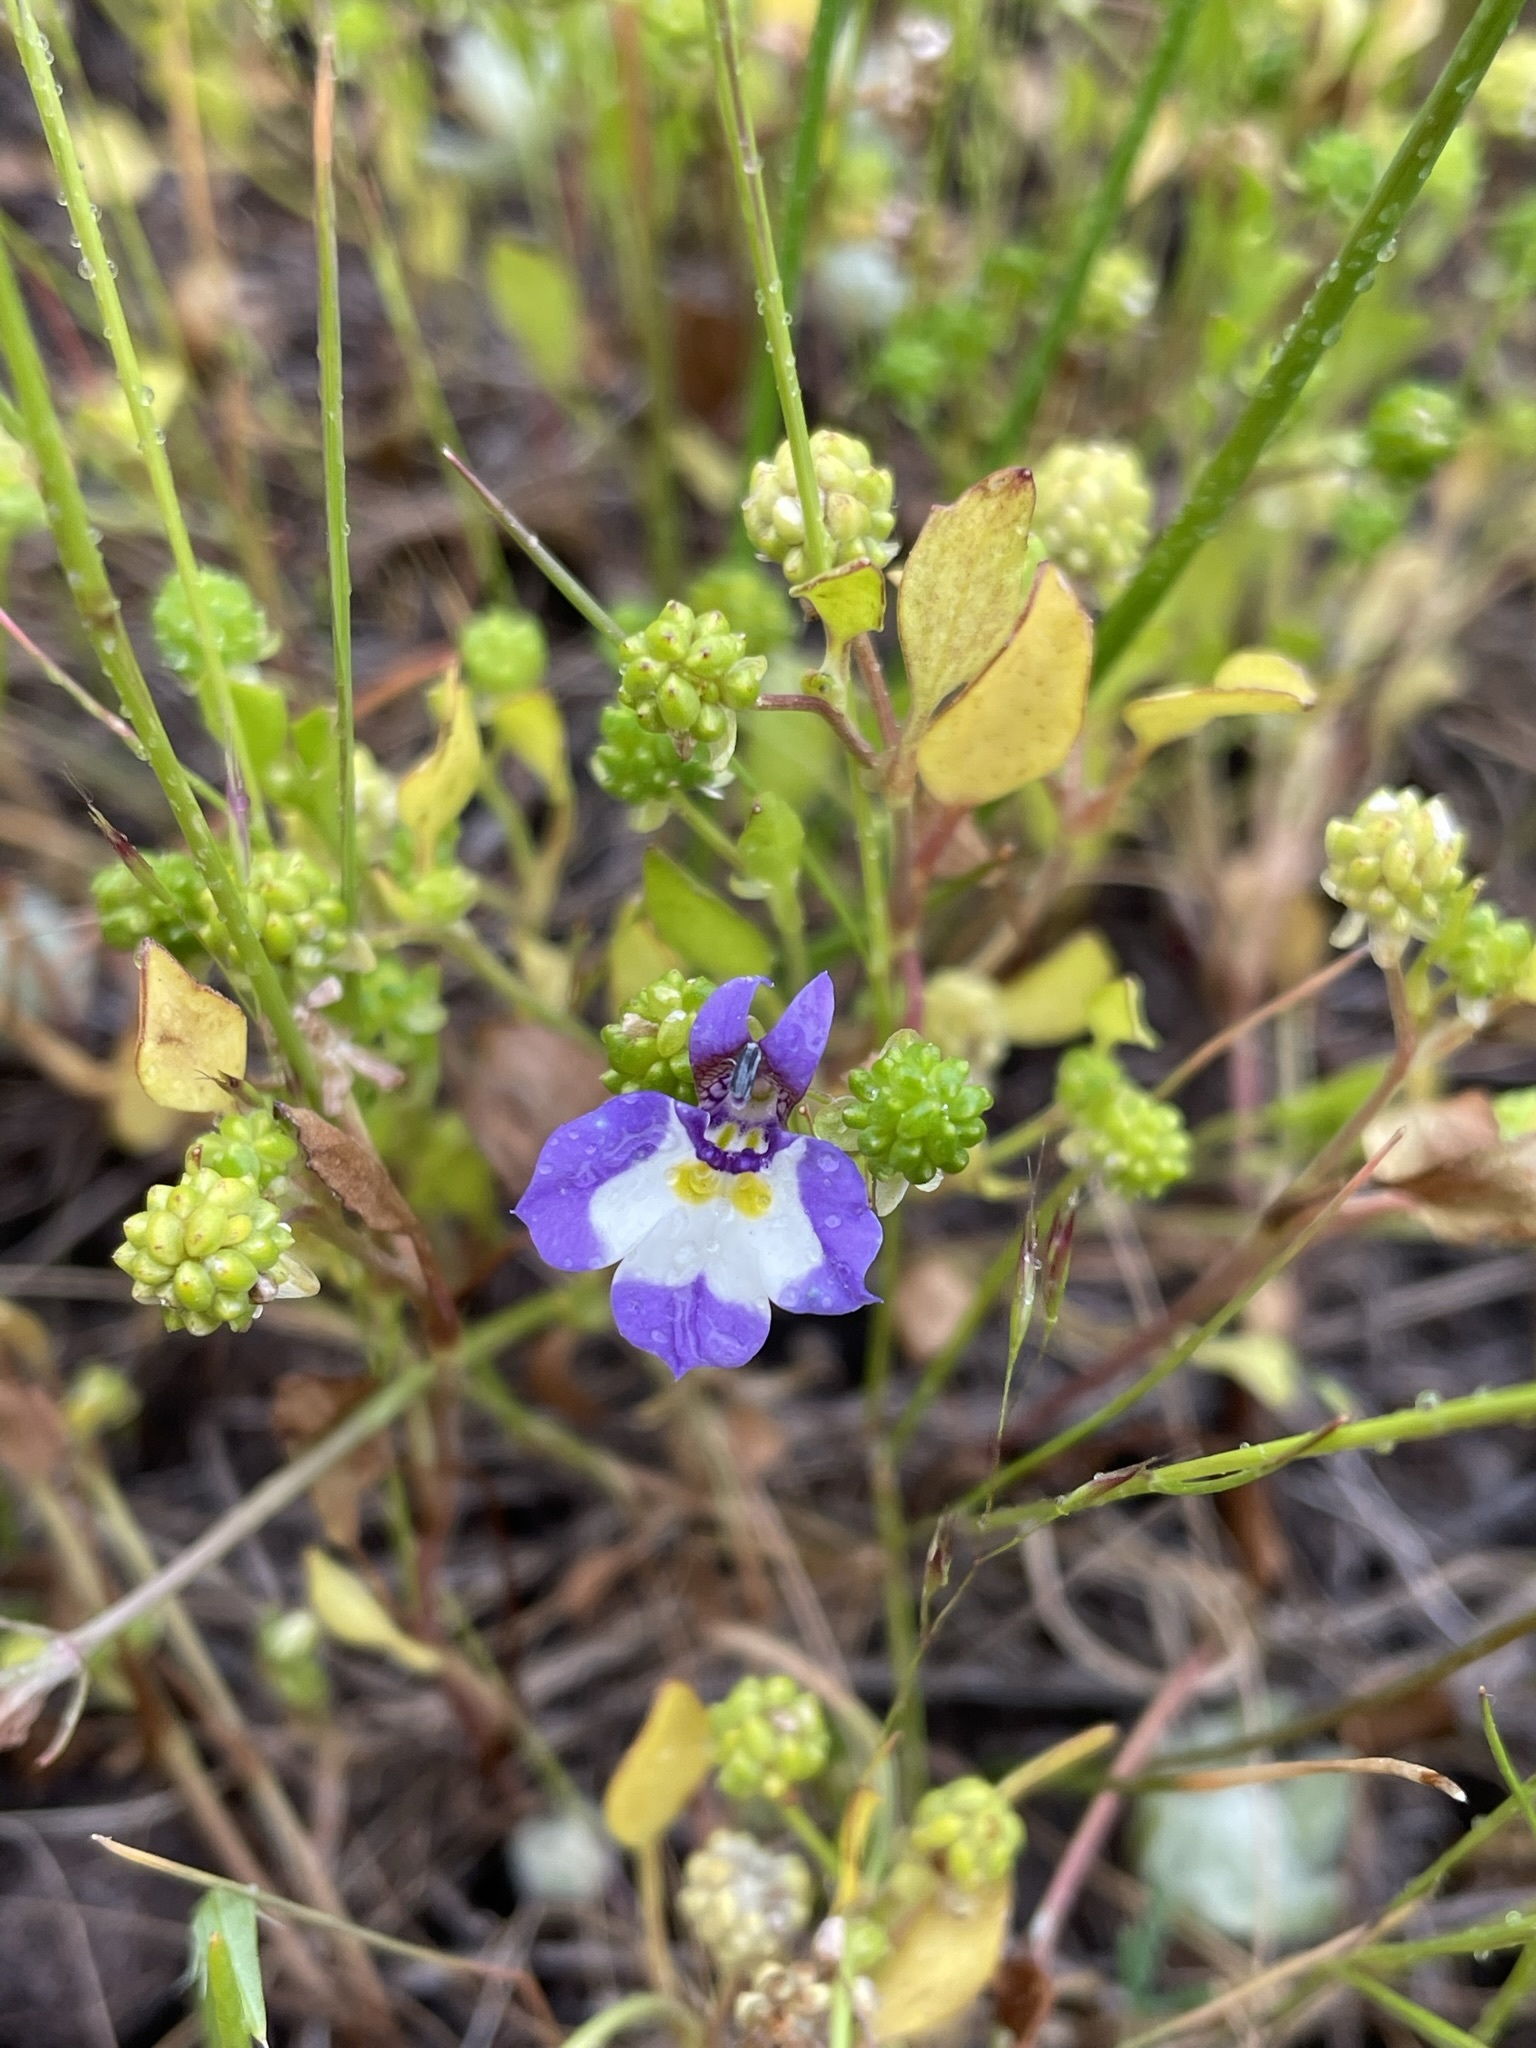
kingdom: Plantae
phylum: Tracheophyta
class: Magnoliopsida
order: Asterales
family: Campanulaceae
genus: Downingia
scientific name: Downingia bicornuta
